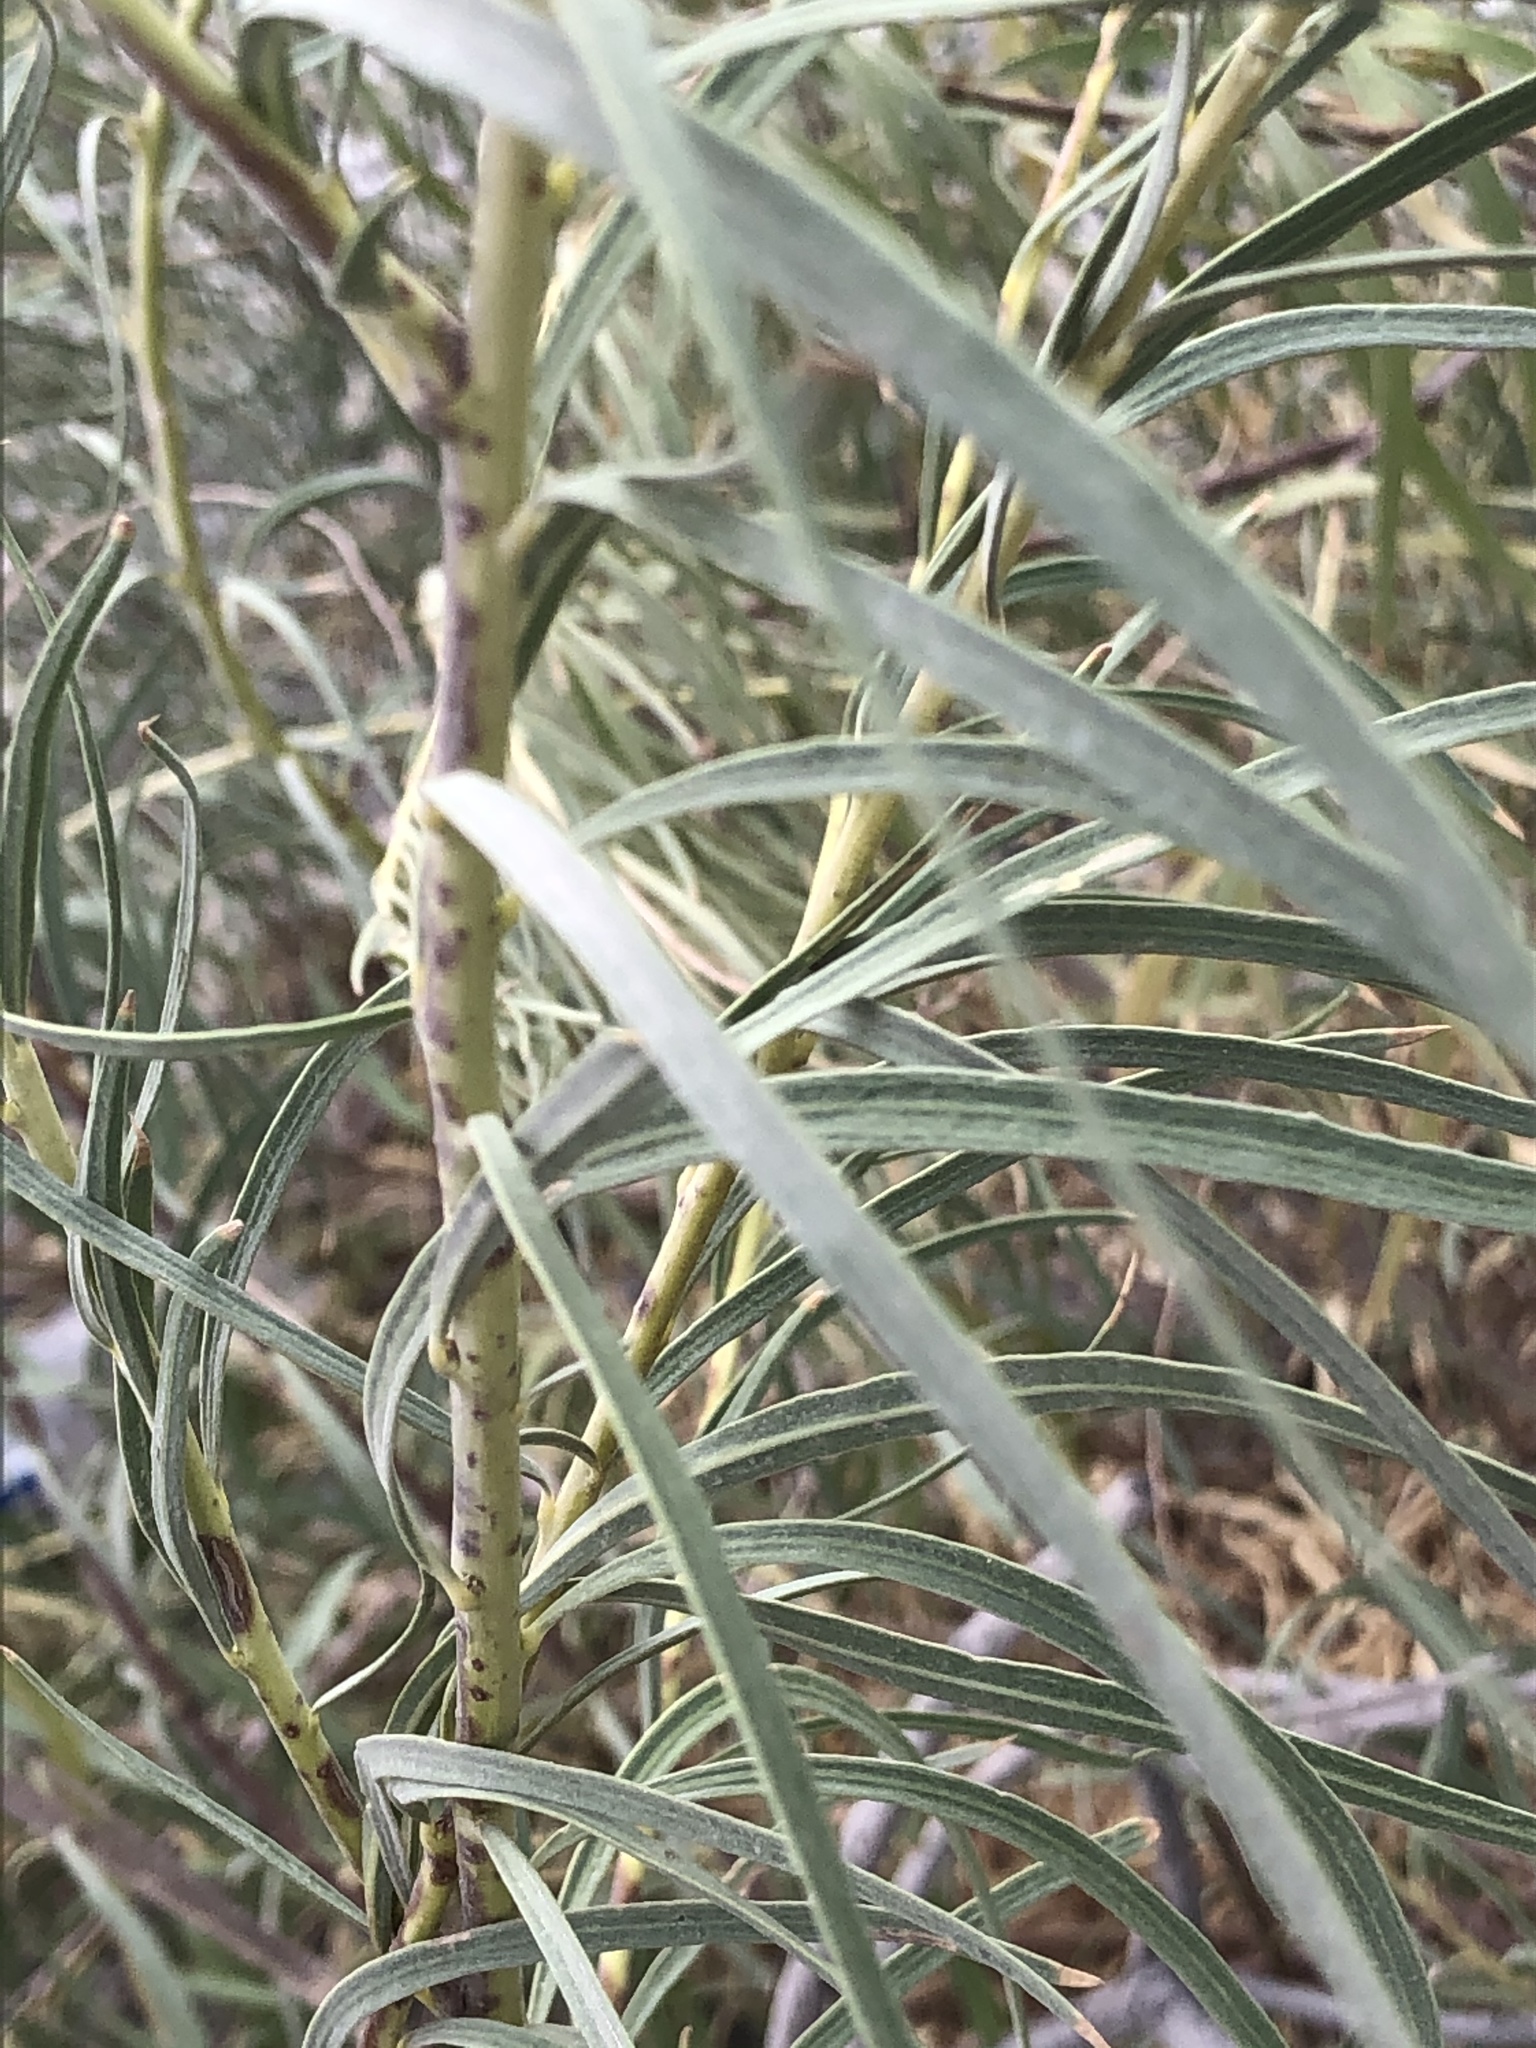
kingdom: Plantae
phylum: Tracheophyta
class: Magnoliopsida
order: Lamiales
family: Bignoniaceae
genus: Chilopsis
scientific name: Chilopsis linearis
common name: Desert-willow
